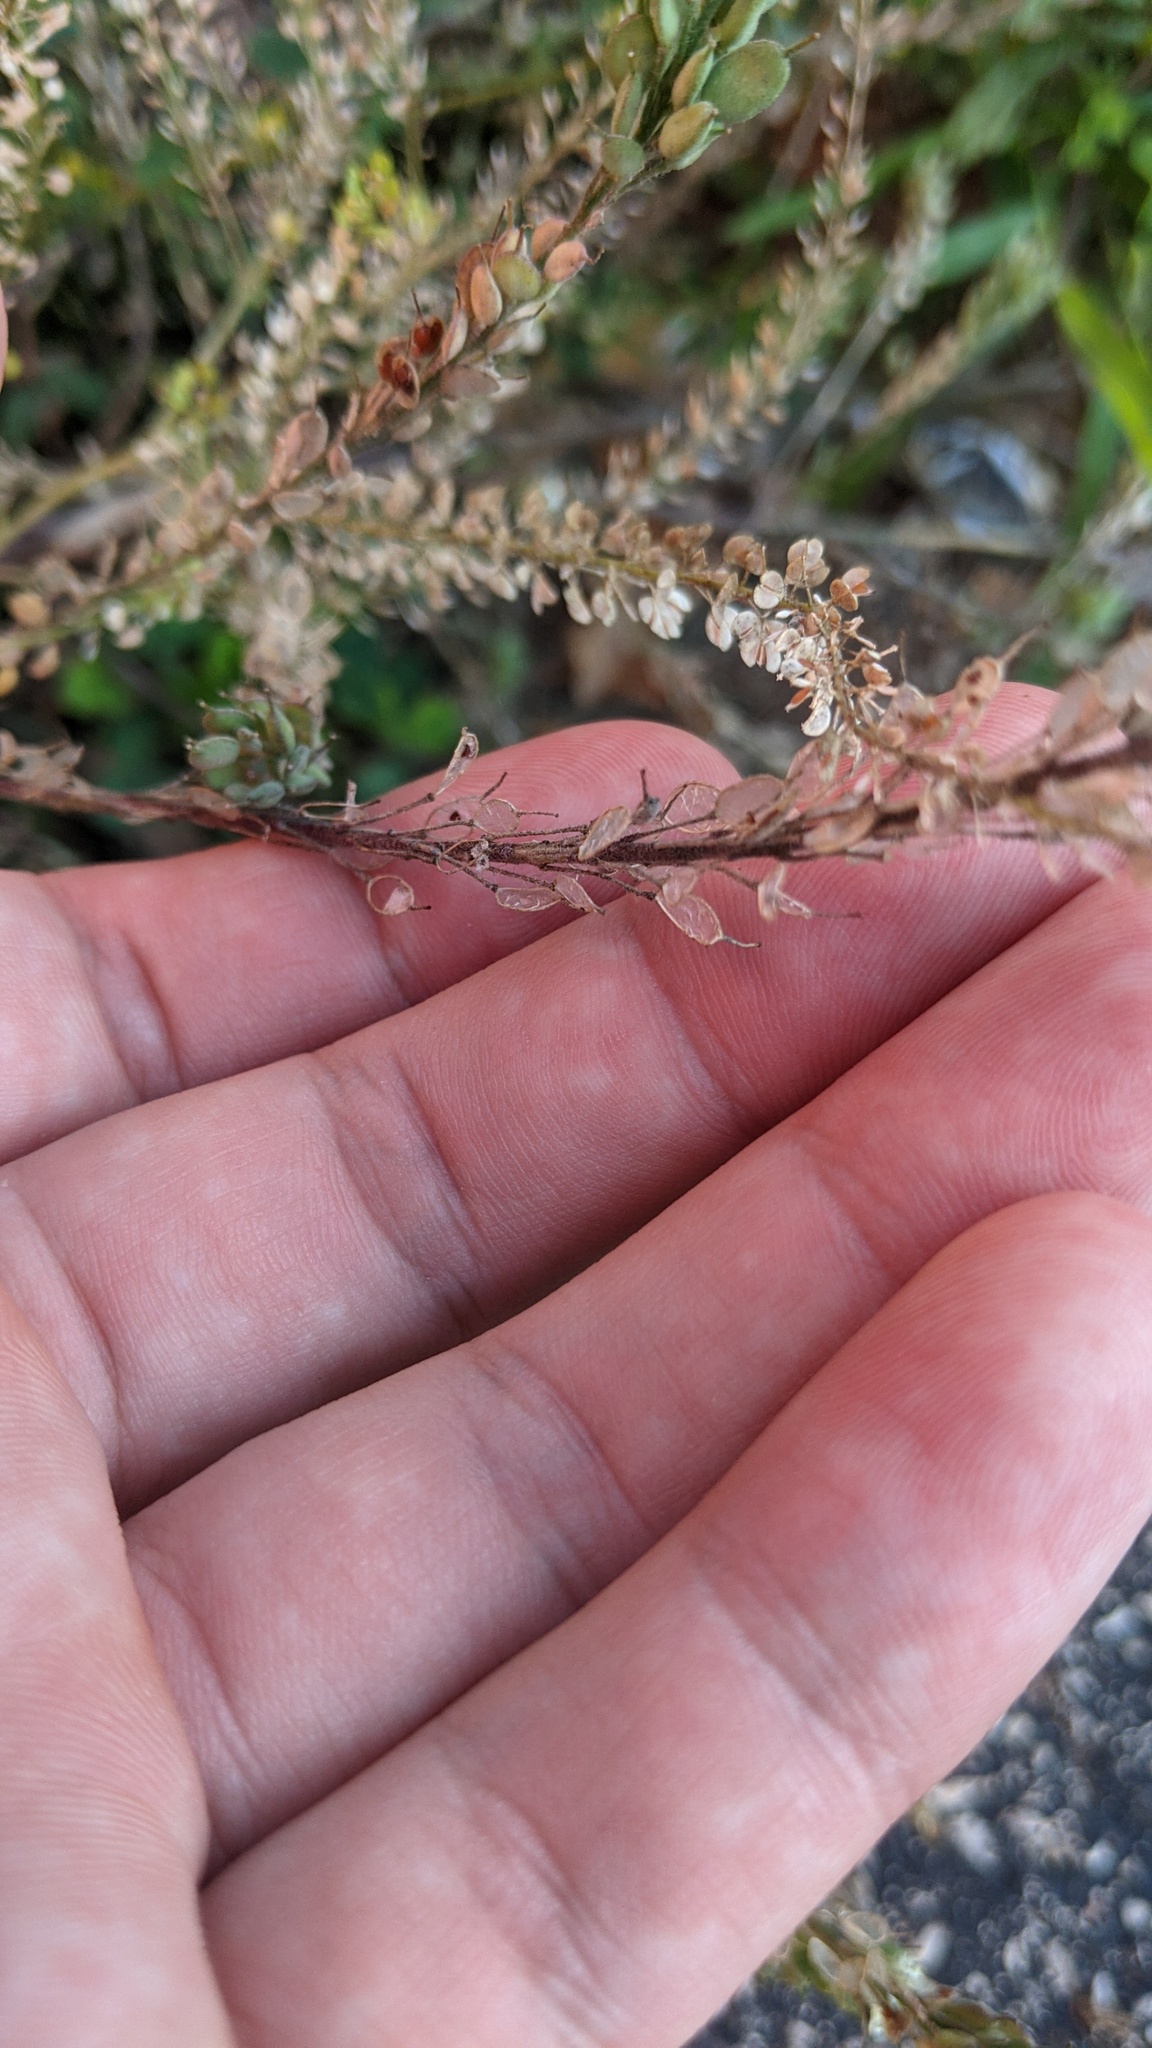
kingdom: Plantae
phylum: Tracheophyta
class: Magnoliopsida
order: Brassicales
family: Brassicaceae
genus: Lepidium
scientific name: Lepidium densiflorum
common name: Miner's pepperwort
